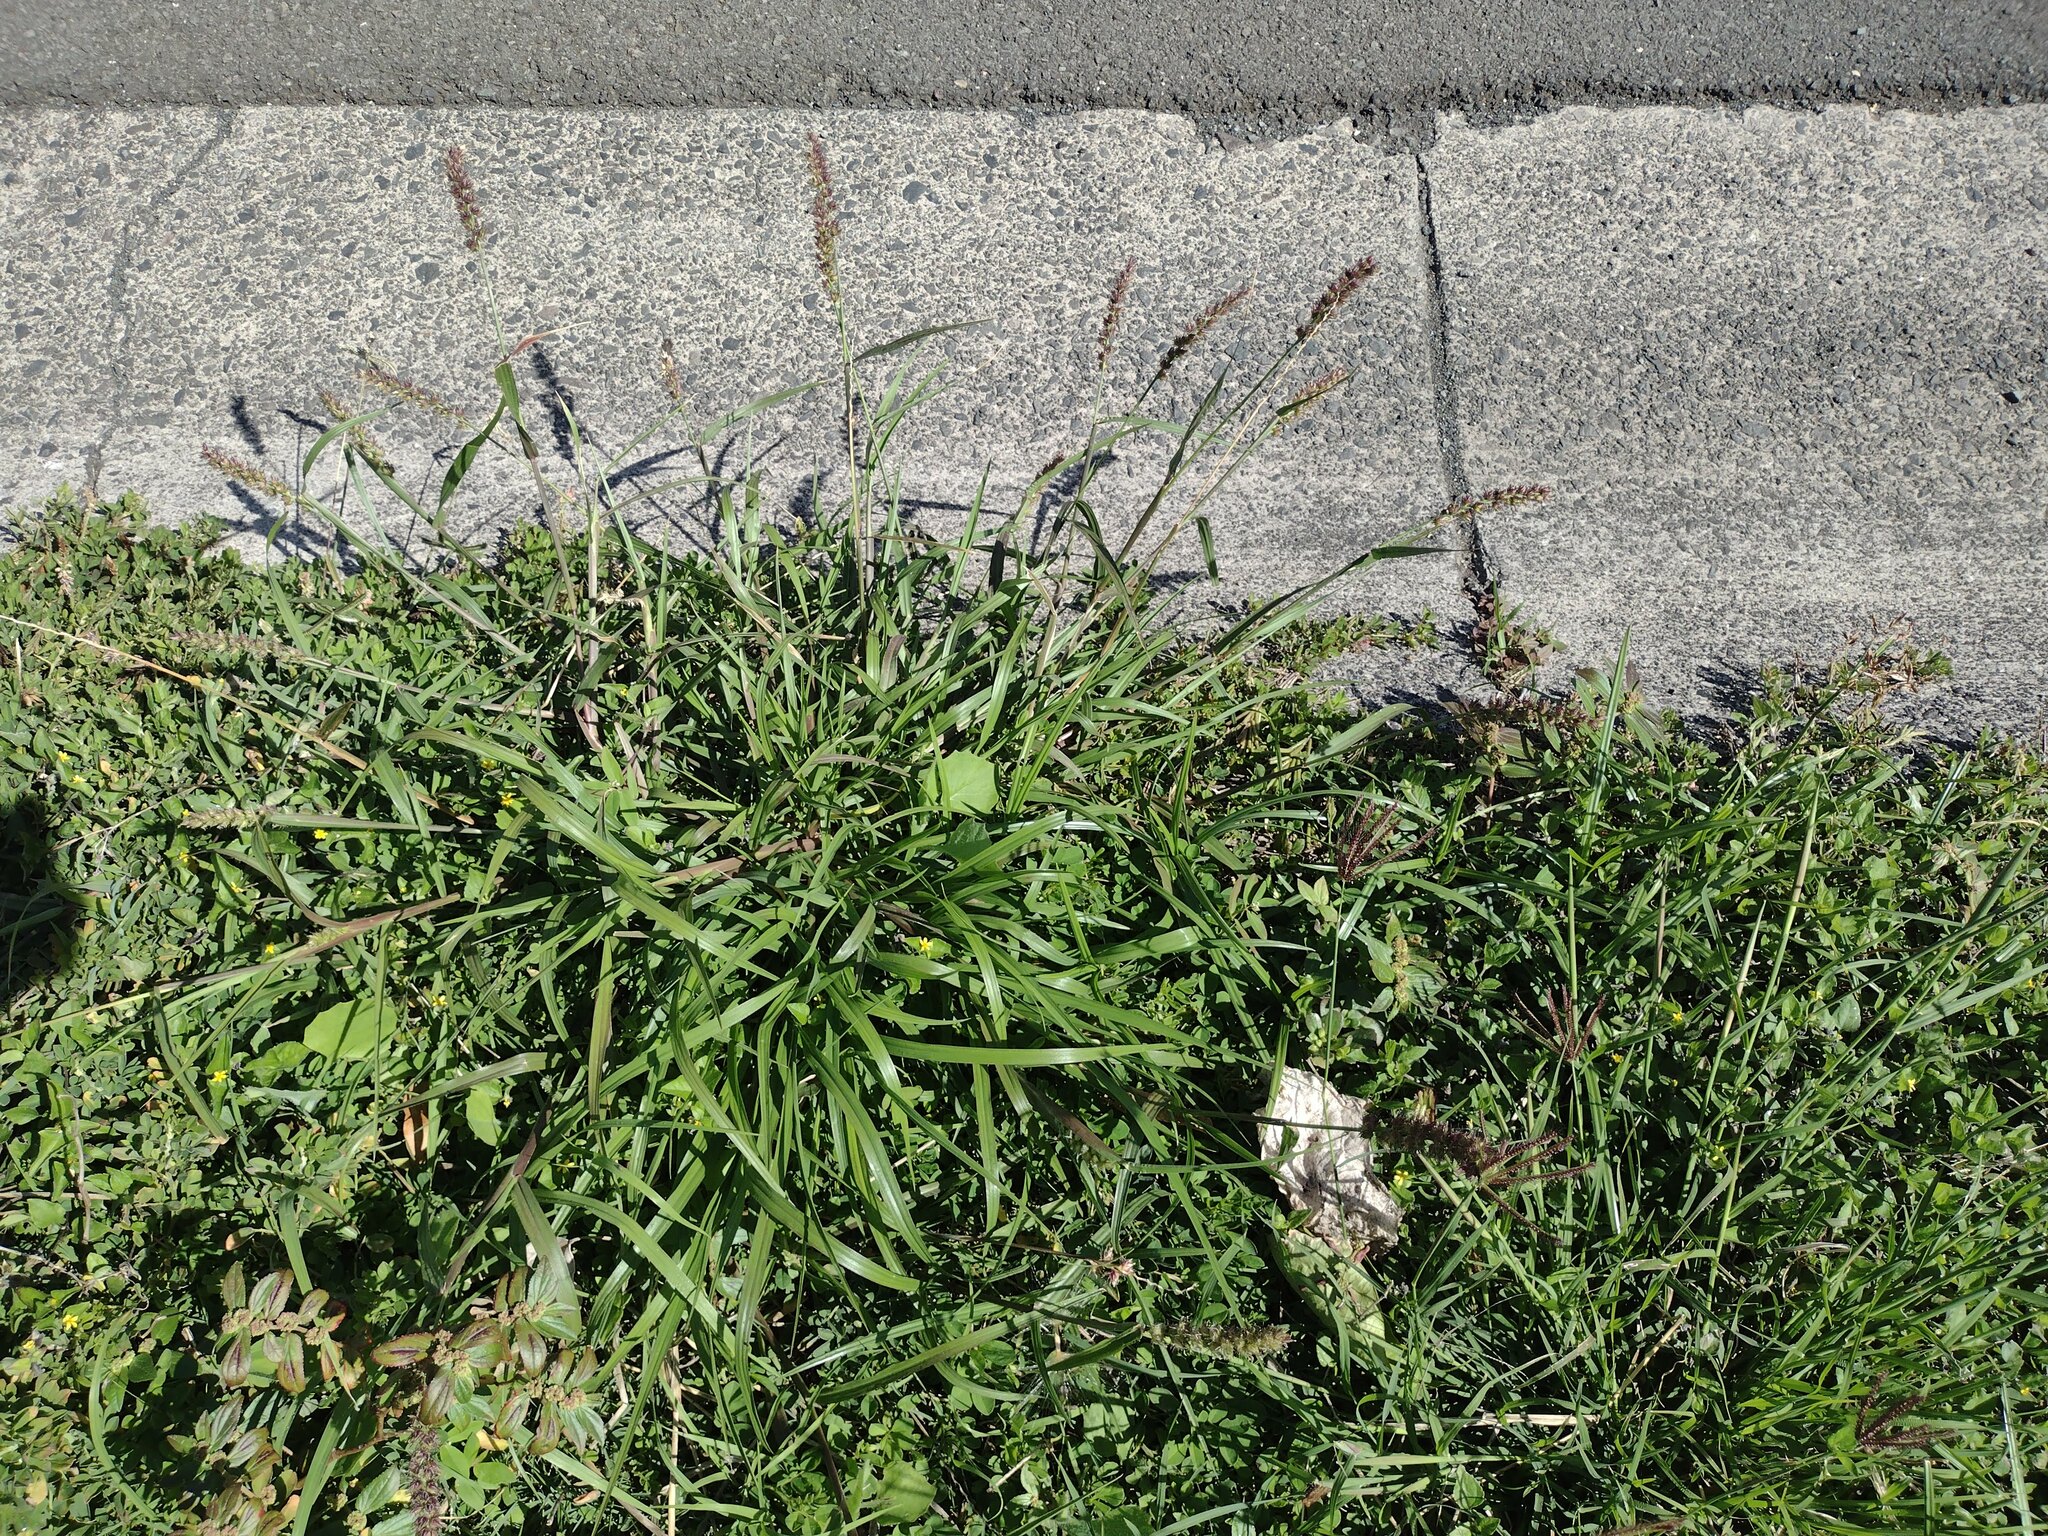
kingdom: Plantae
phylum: Tracheophyta
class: Liliopsida
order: Poales
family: Poaceae
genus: Cenchrus
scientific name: Cenchrus echinatus
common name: Southern sandbur
